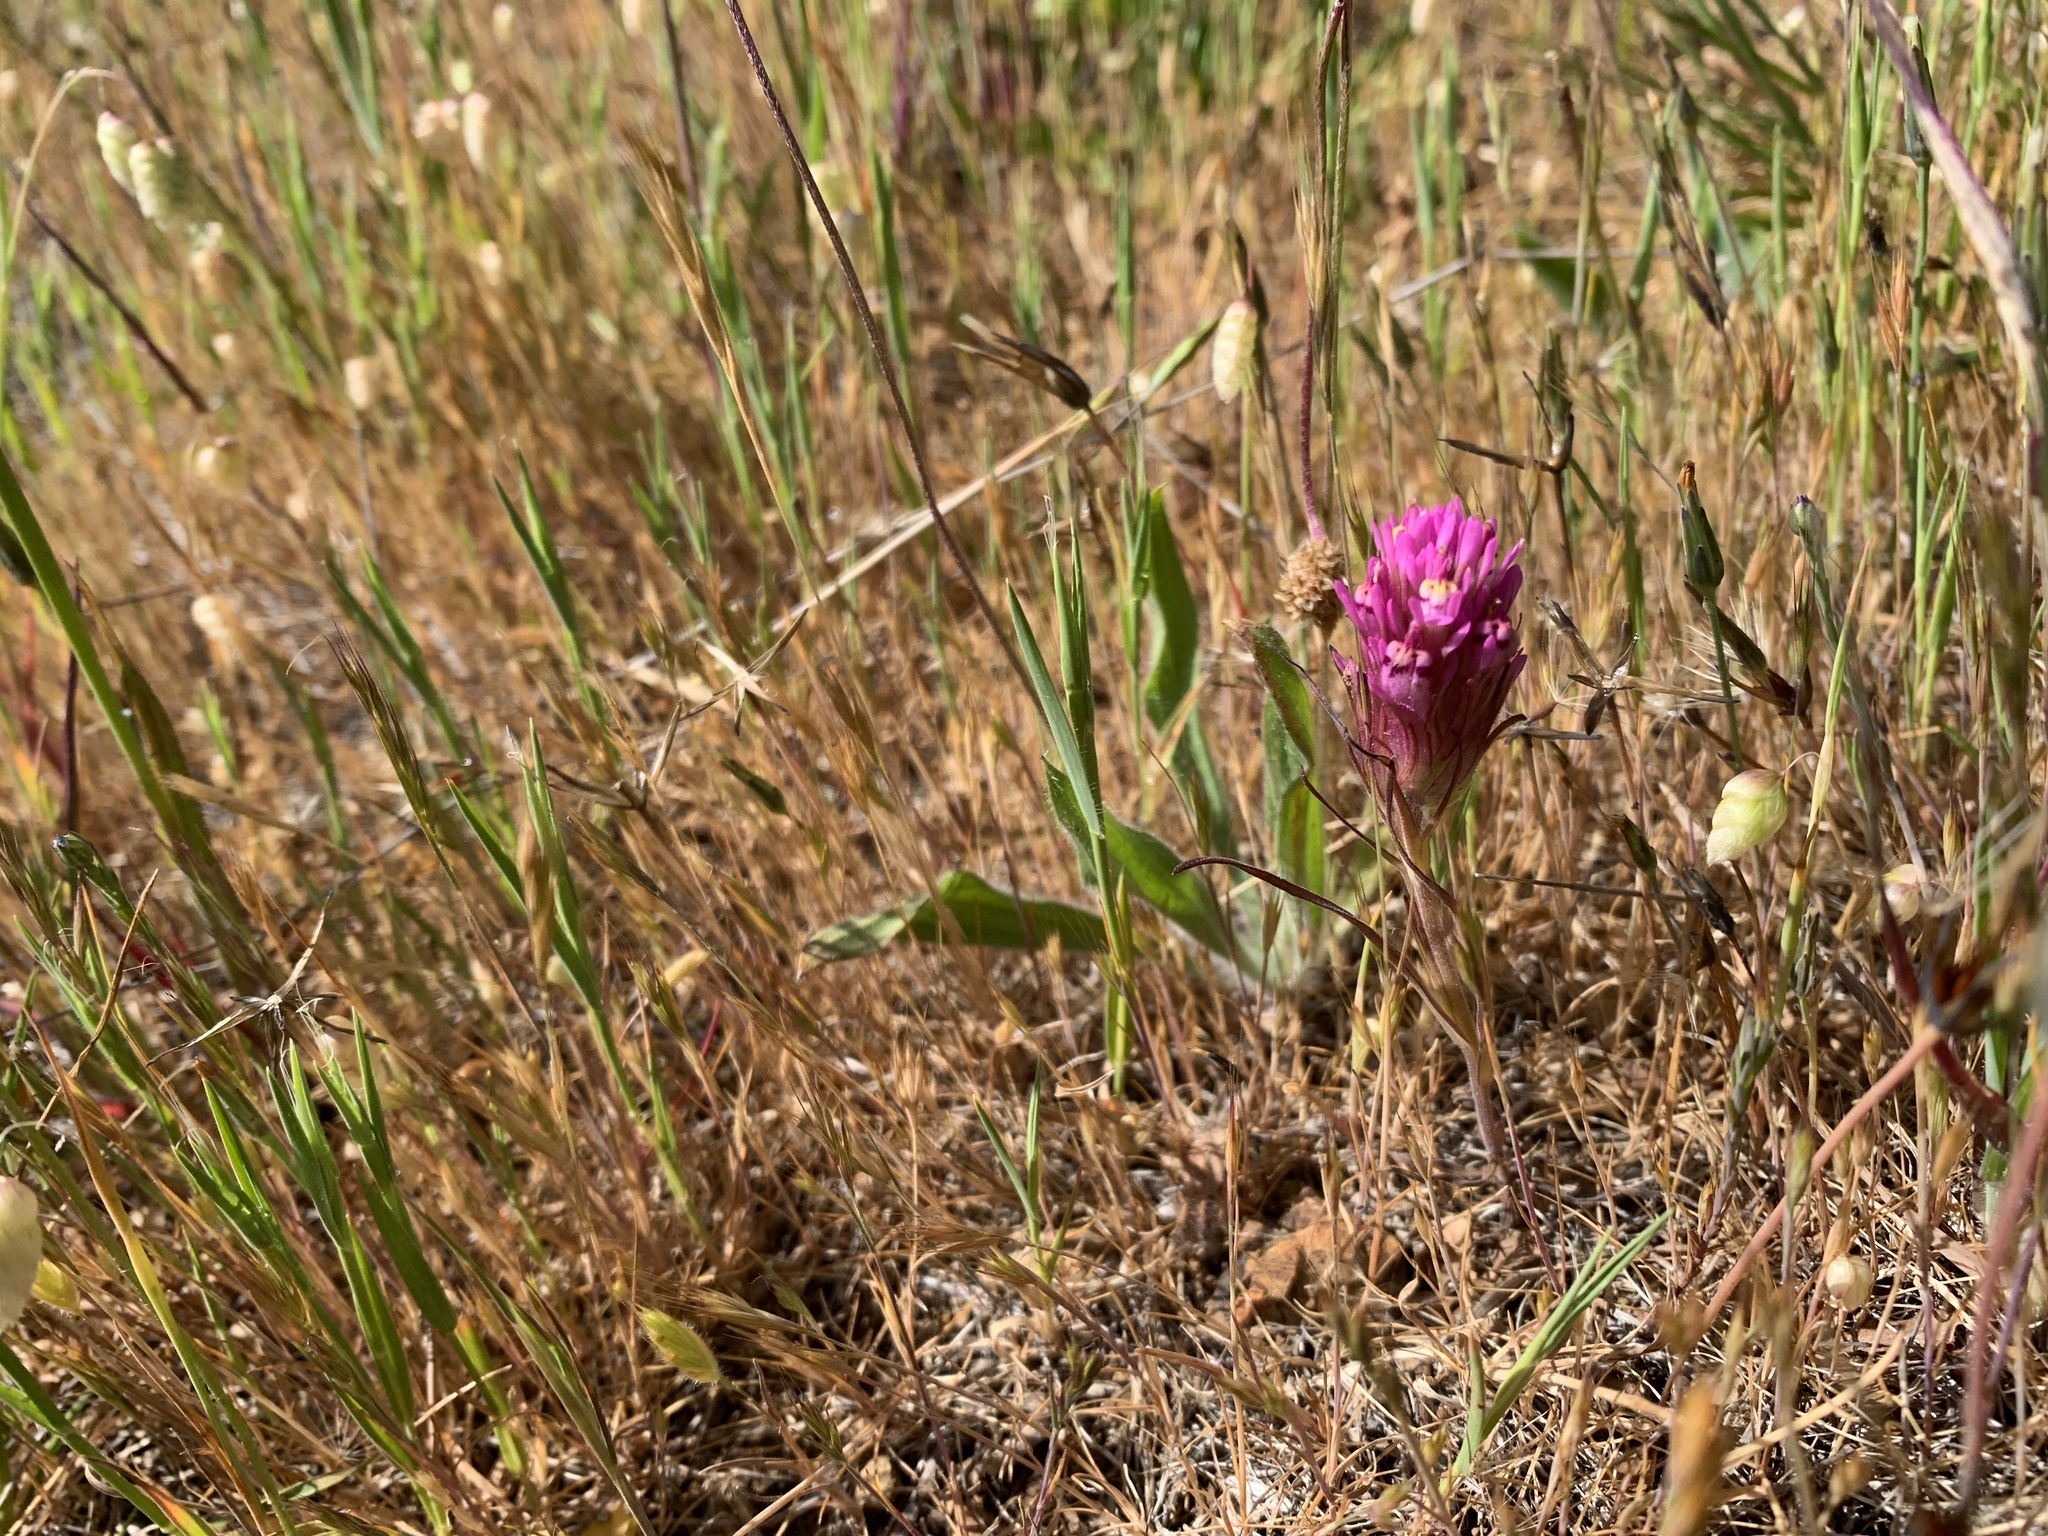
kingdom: Plantae
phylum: Tracheophyta
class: Magnoliopsida
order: Lamiales
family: Orobanchaceae
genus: Castilleja
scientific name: Castilleja densiflora
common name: Dense-flower indian paintbrush
